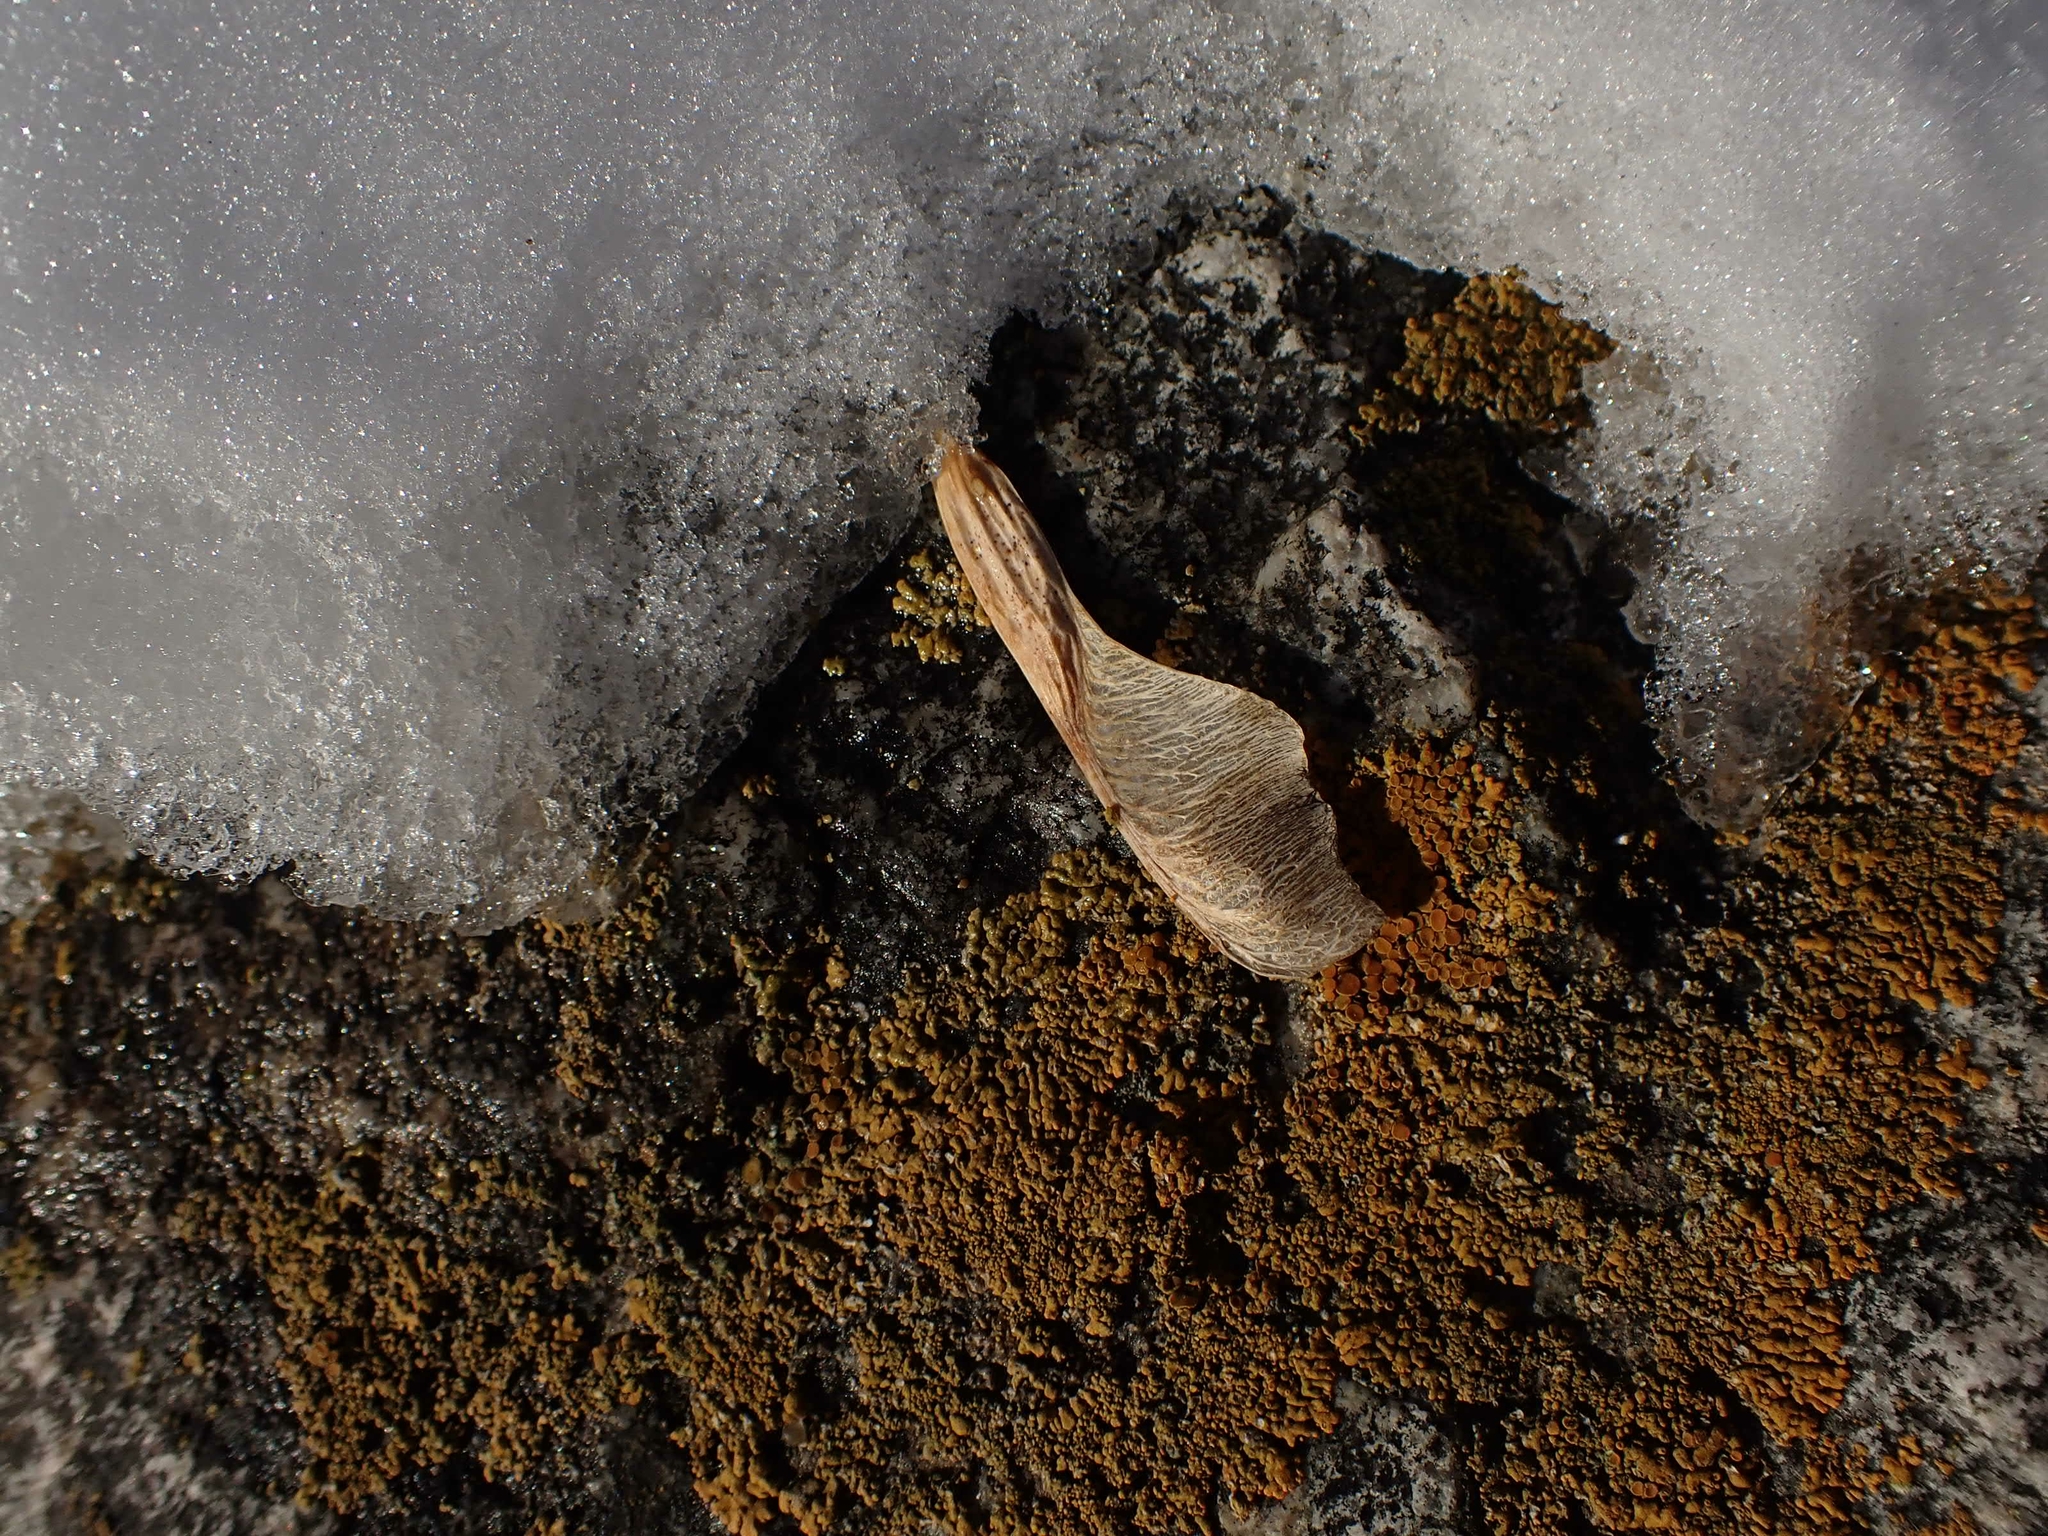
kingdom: Plantae
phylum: Tracheophyta
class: Magnoliopsida
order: Sapindales
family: Sapindaceae
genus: Acer
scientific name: Acer negundo
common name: Ashleaf maple
